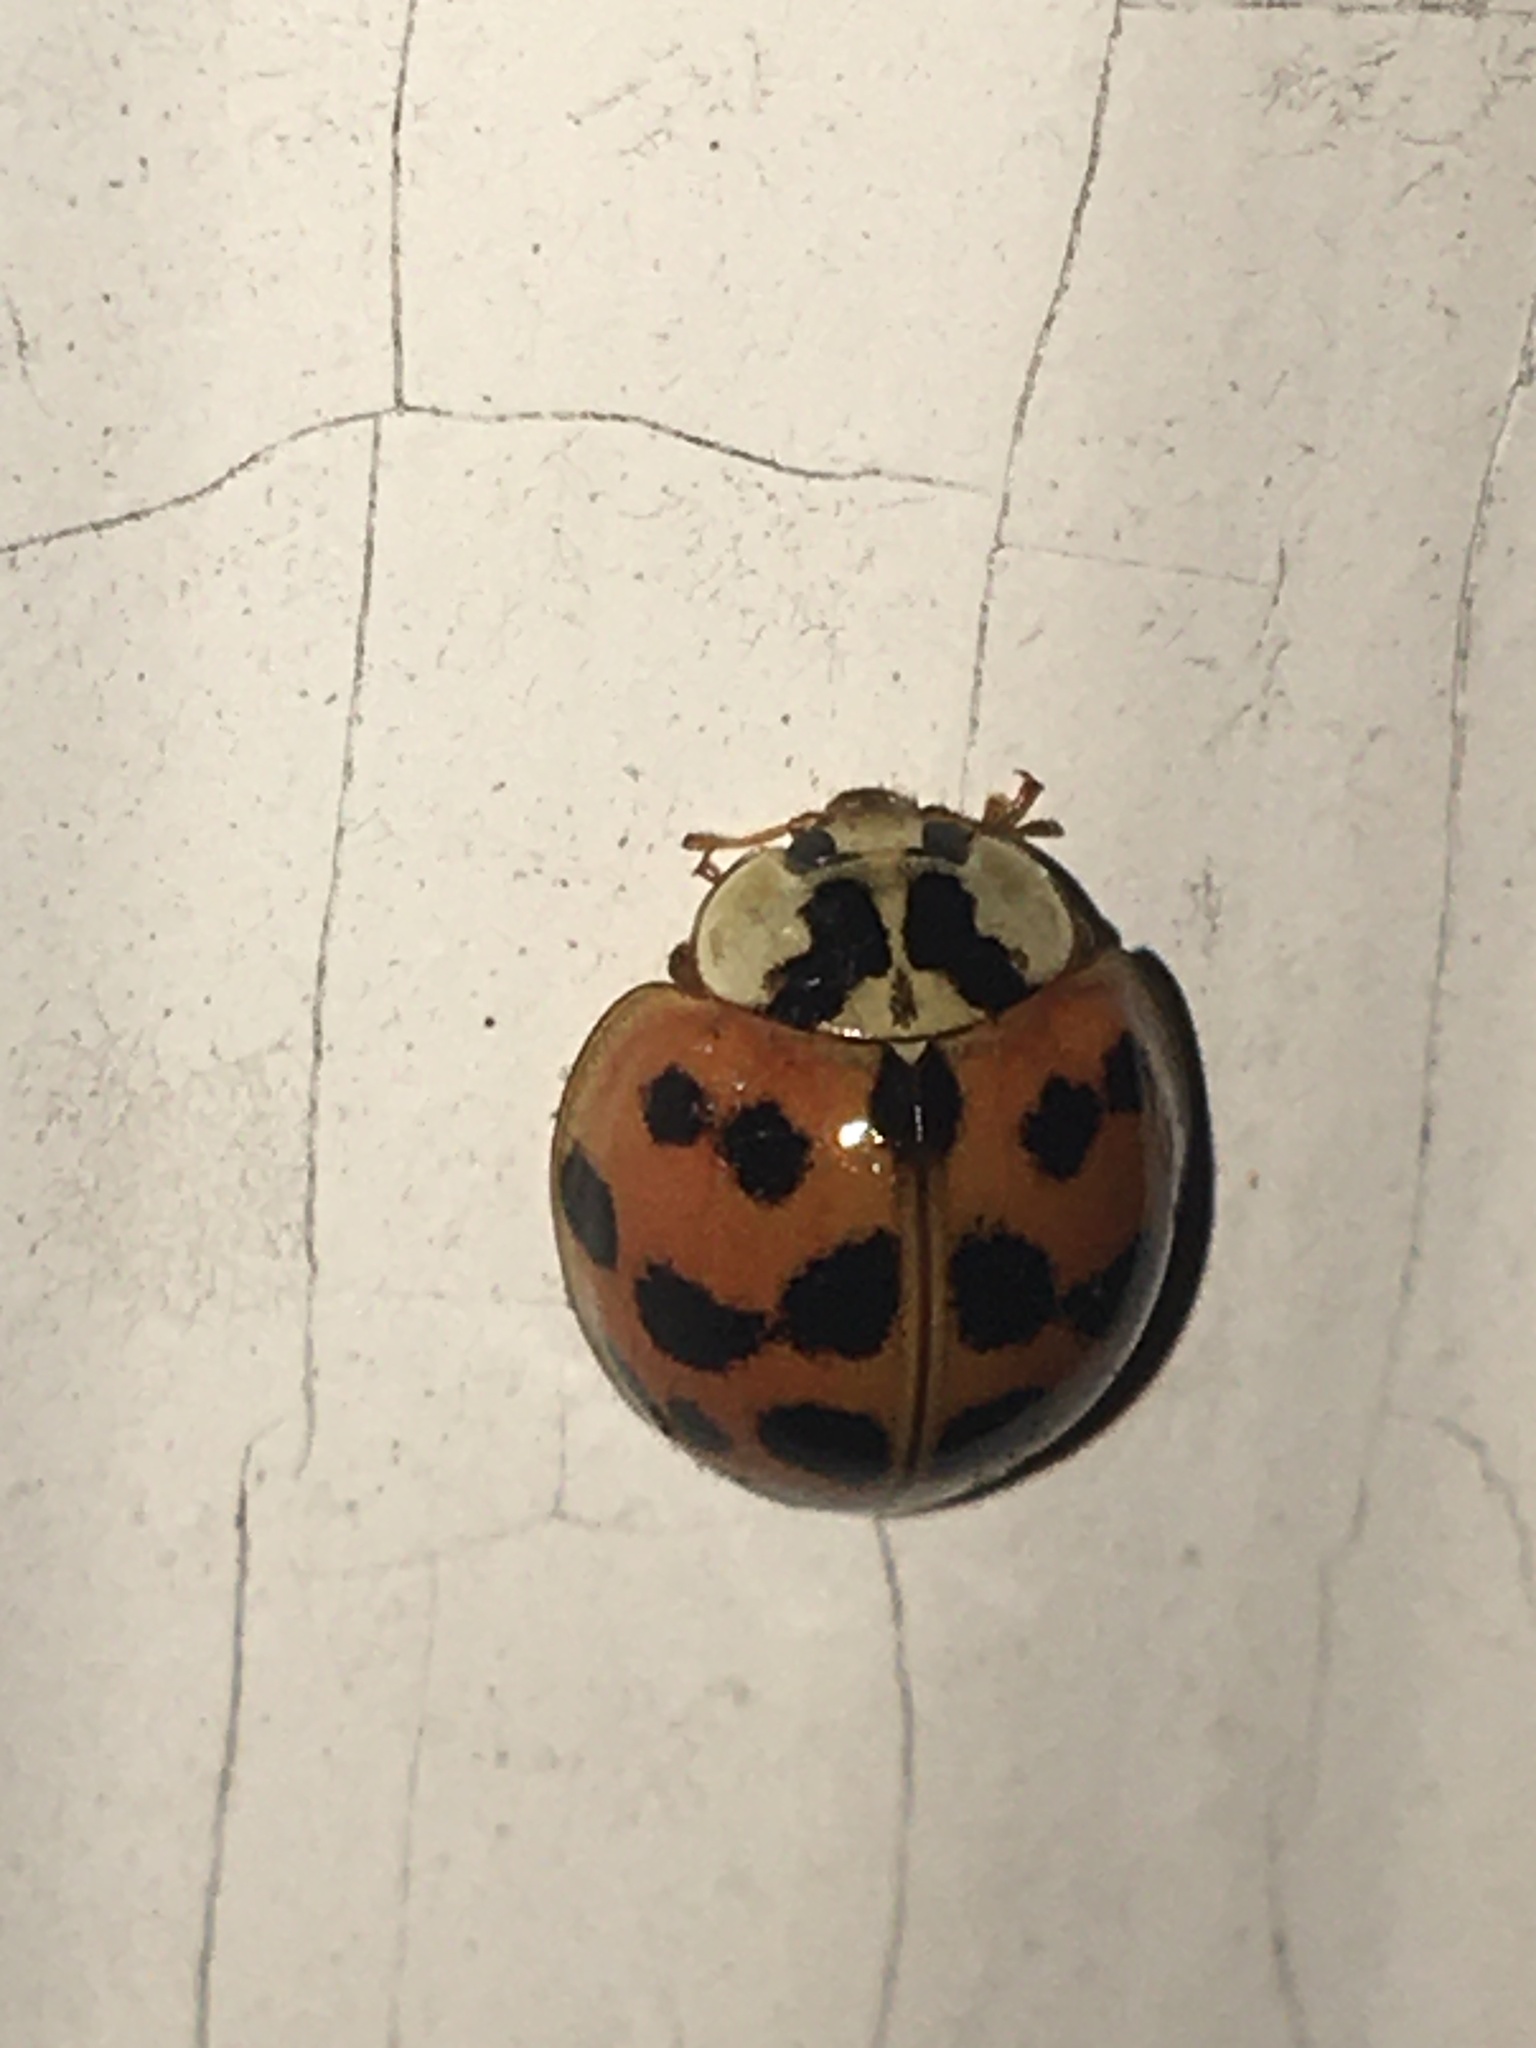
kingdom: Animalia
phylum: Arthropoda
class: Insecta
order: Coleoptera
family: Coccinellidae
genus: Harmonia
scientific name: Harmonia axyridis
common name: Harlequin ladybird
